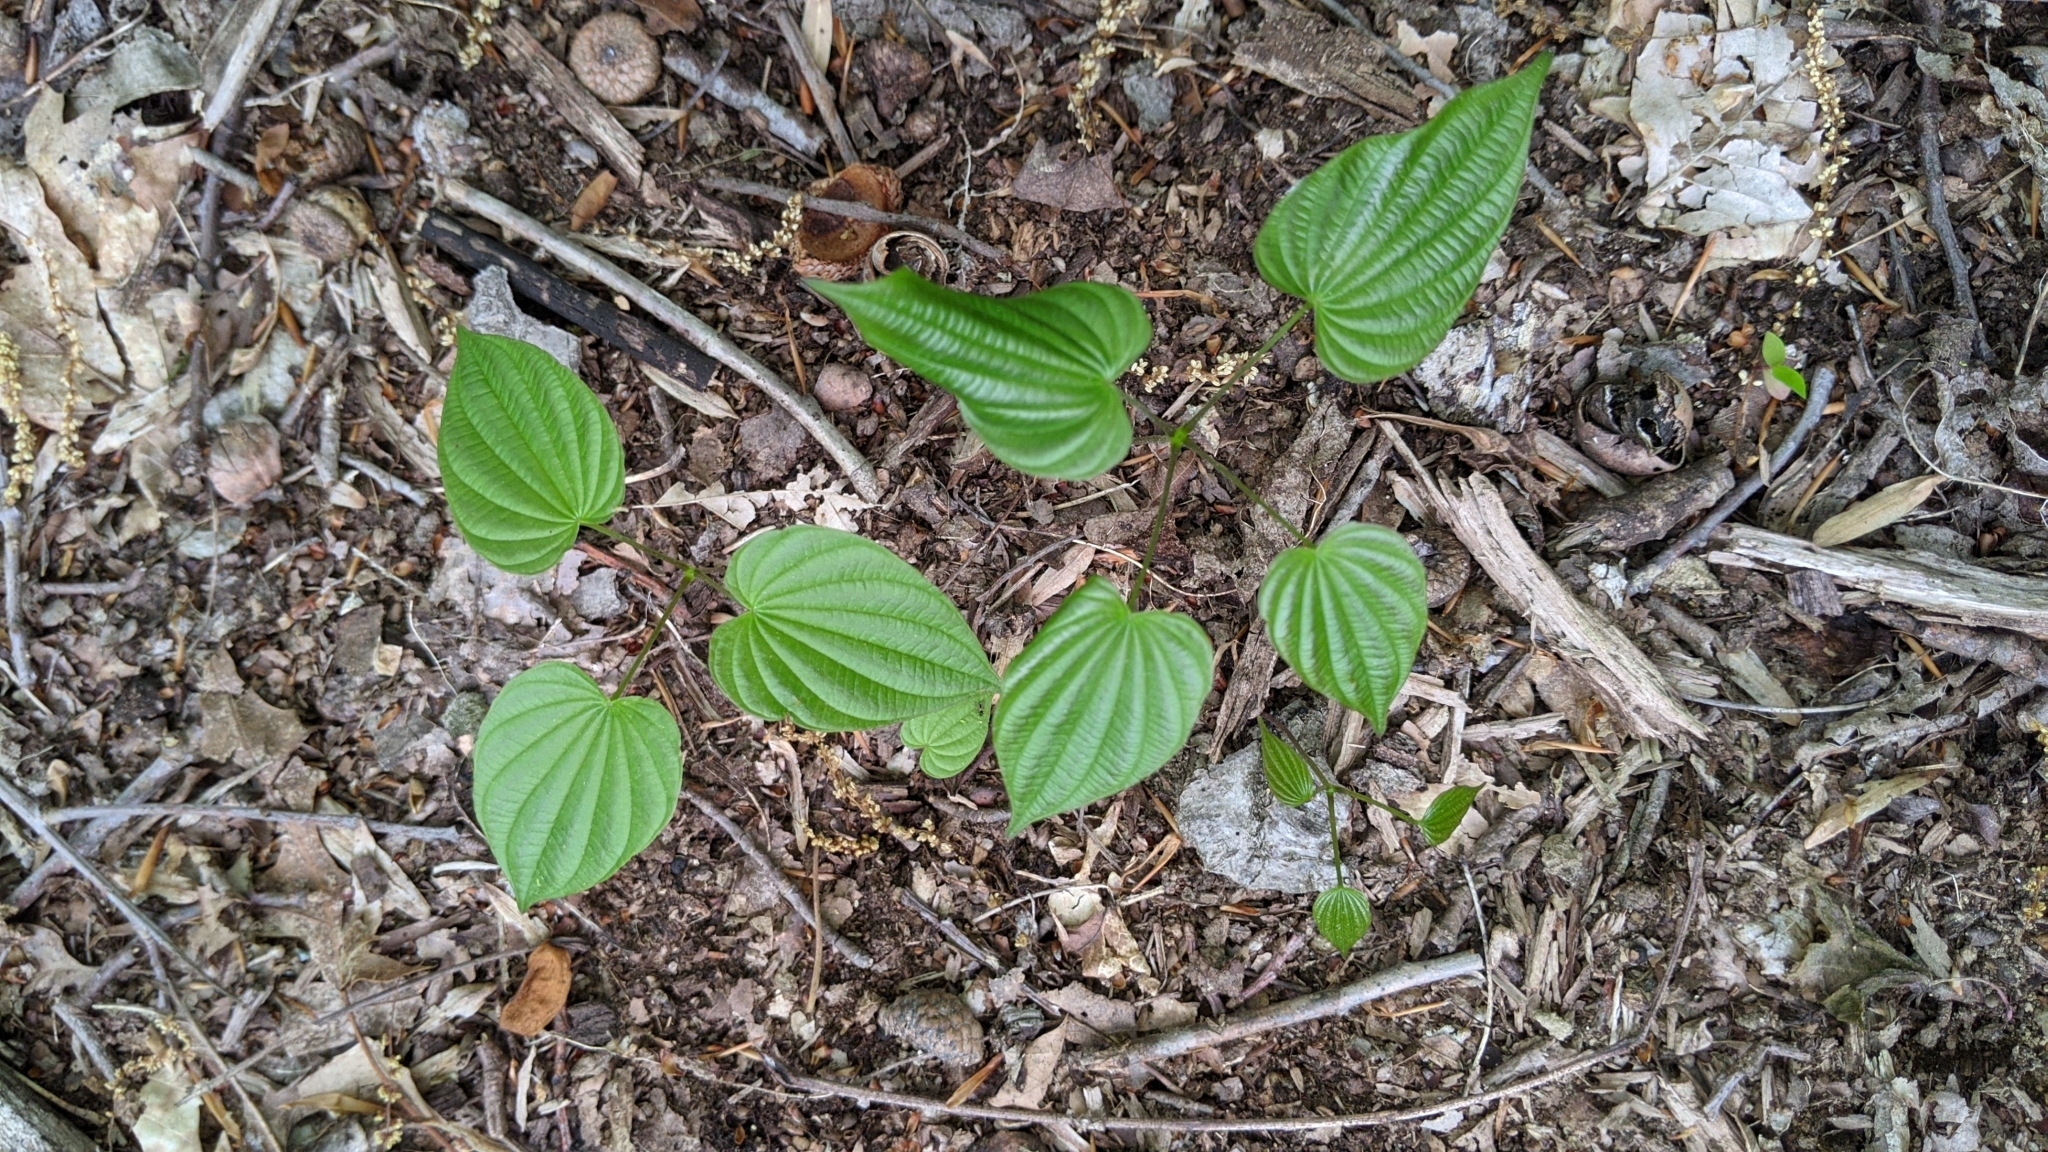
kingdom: Plantae
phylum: Tracheophyta
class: Liliopsida
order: Dioscoreales
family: Dioscoreaceae
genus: Dioscorea
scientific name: Dioscorea villosa
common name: Wild yam
